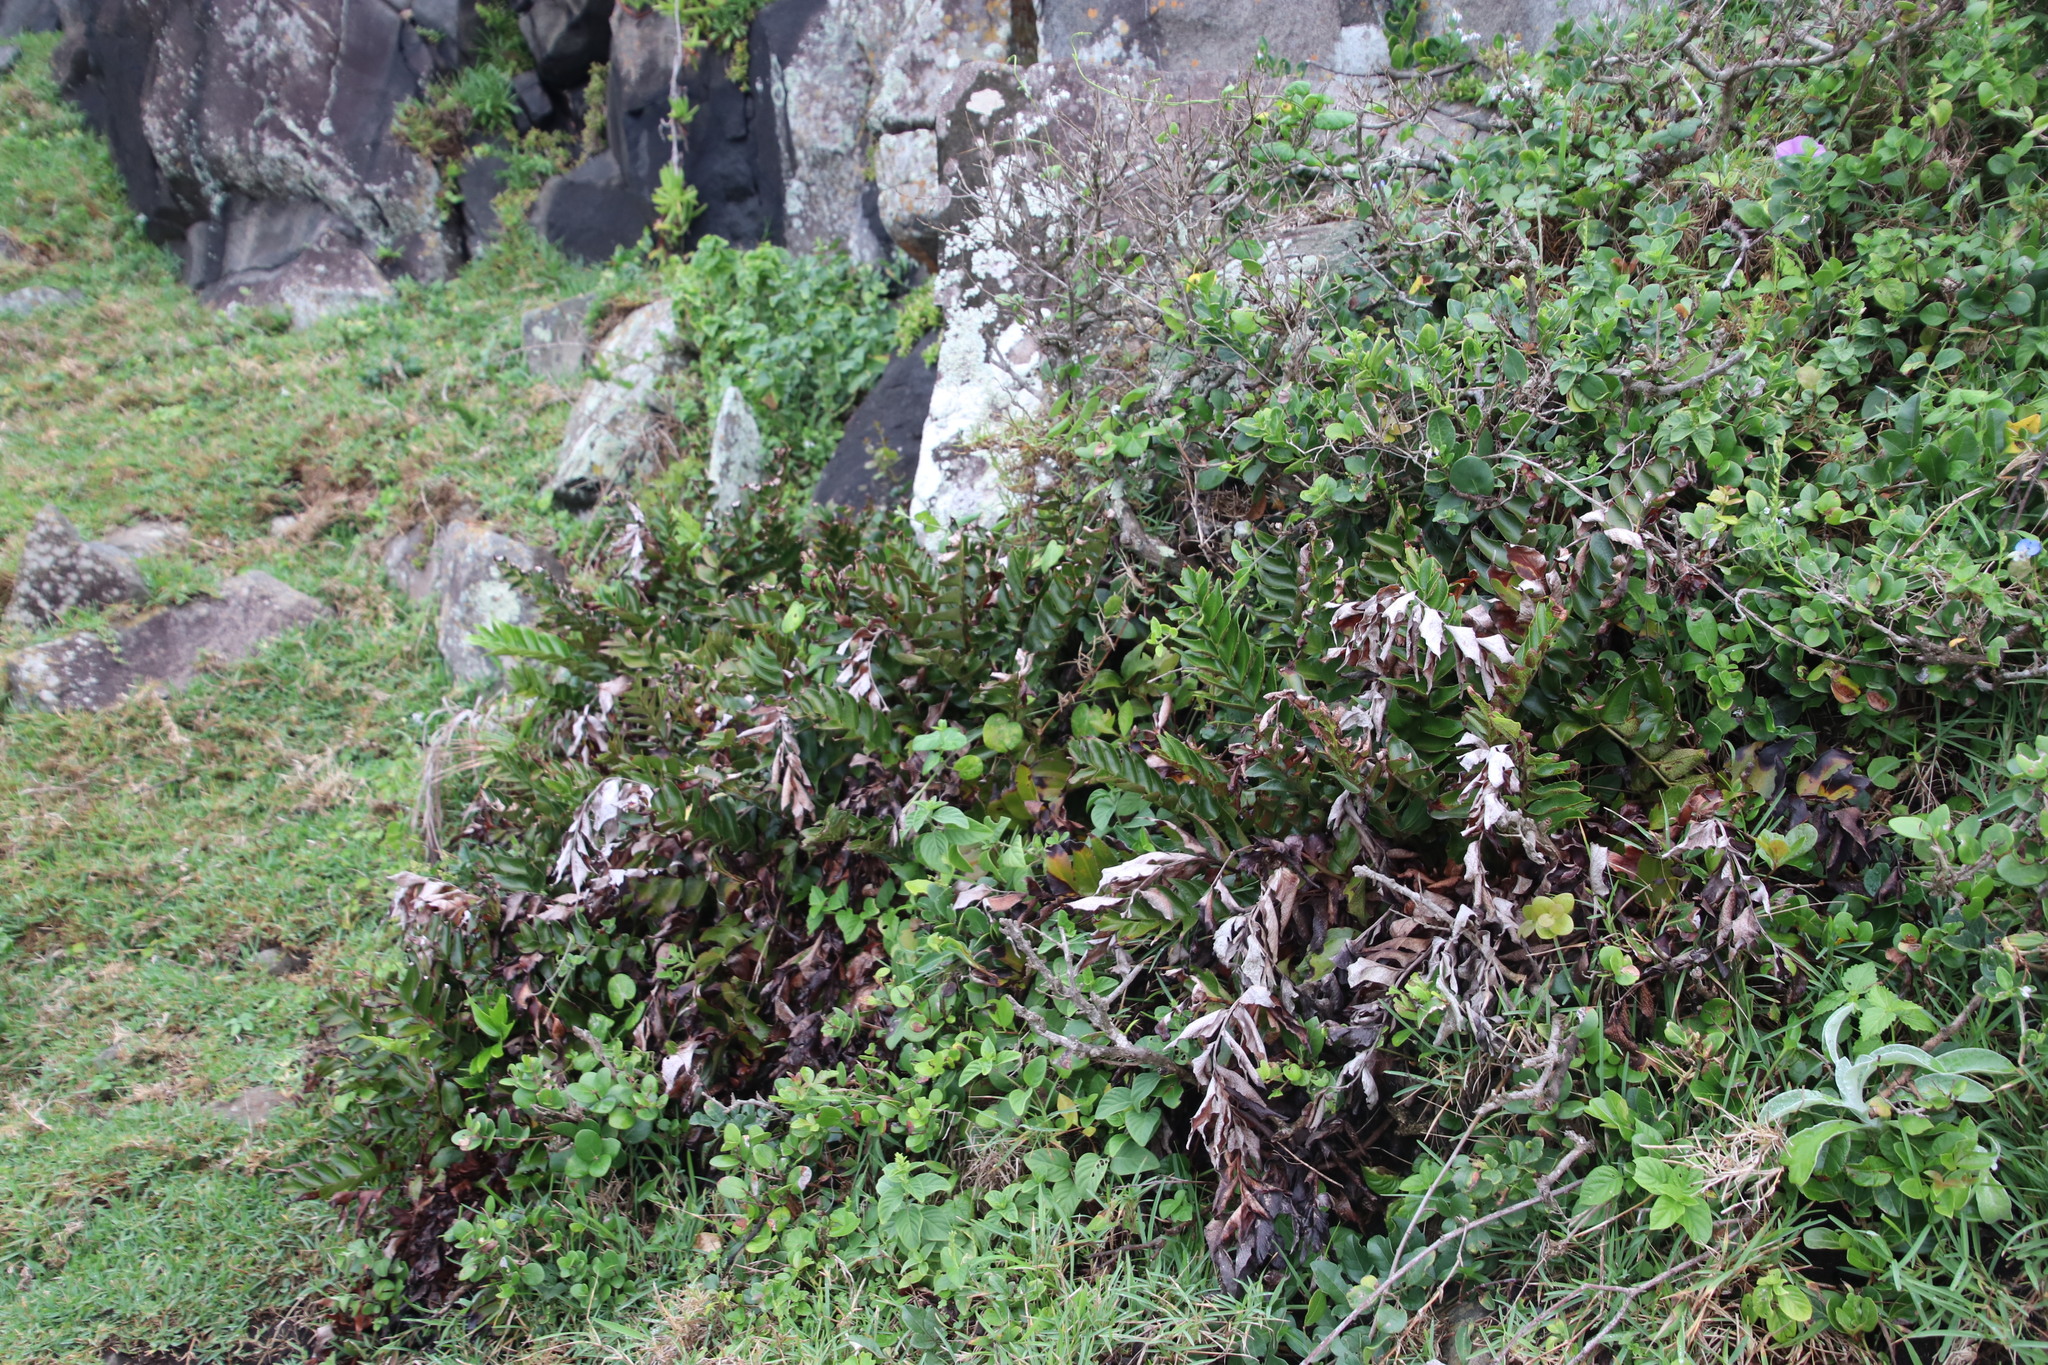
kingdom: Plantae
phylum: Tracheophyta
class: Polypodiopsida
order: Polypodiales
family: Dryopteridaceae
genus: Cyrtomium
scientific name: Cyrtomium falcatum
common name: House holly-fern
